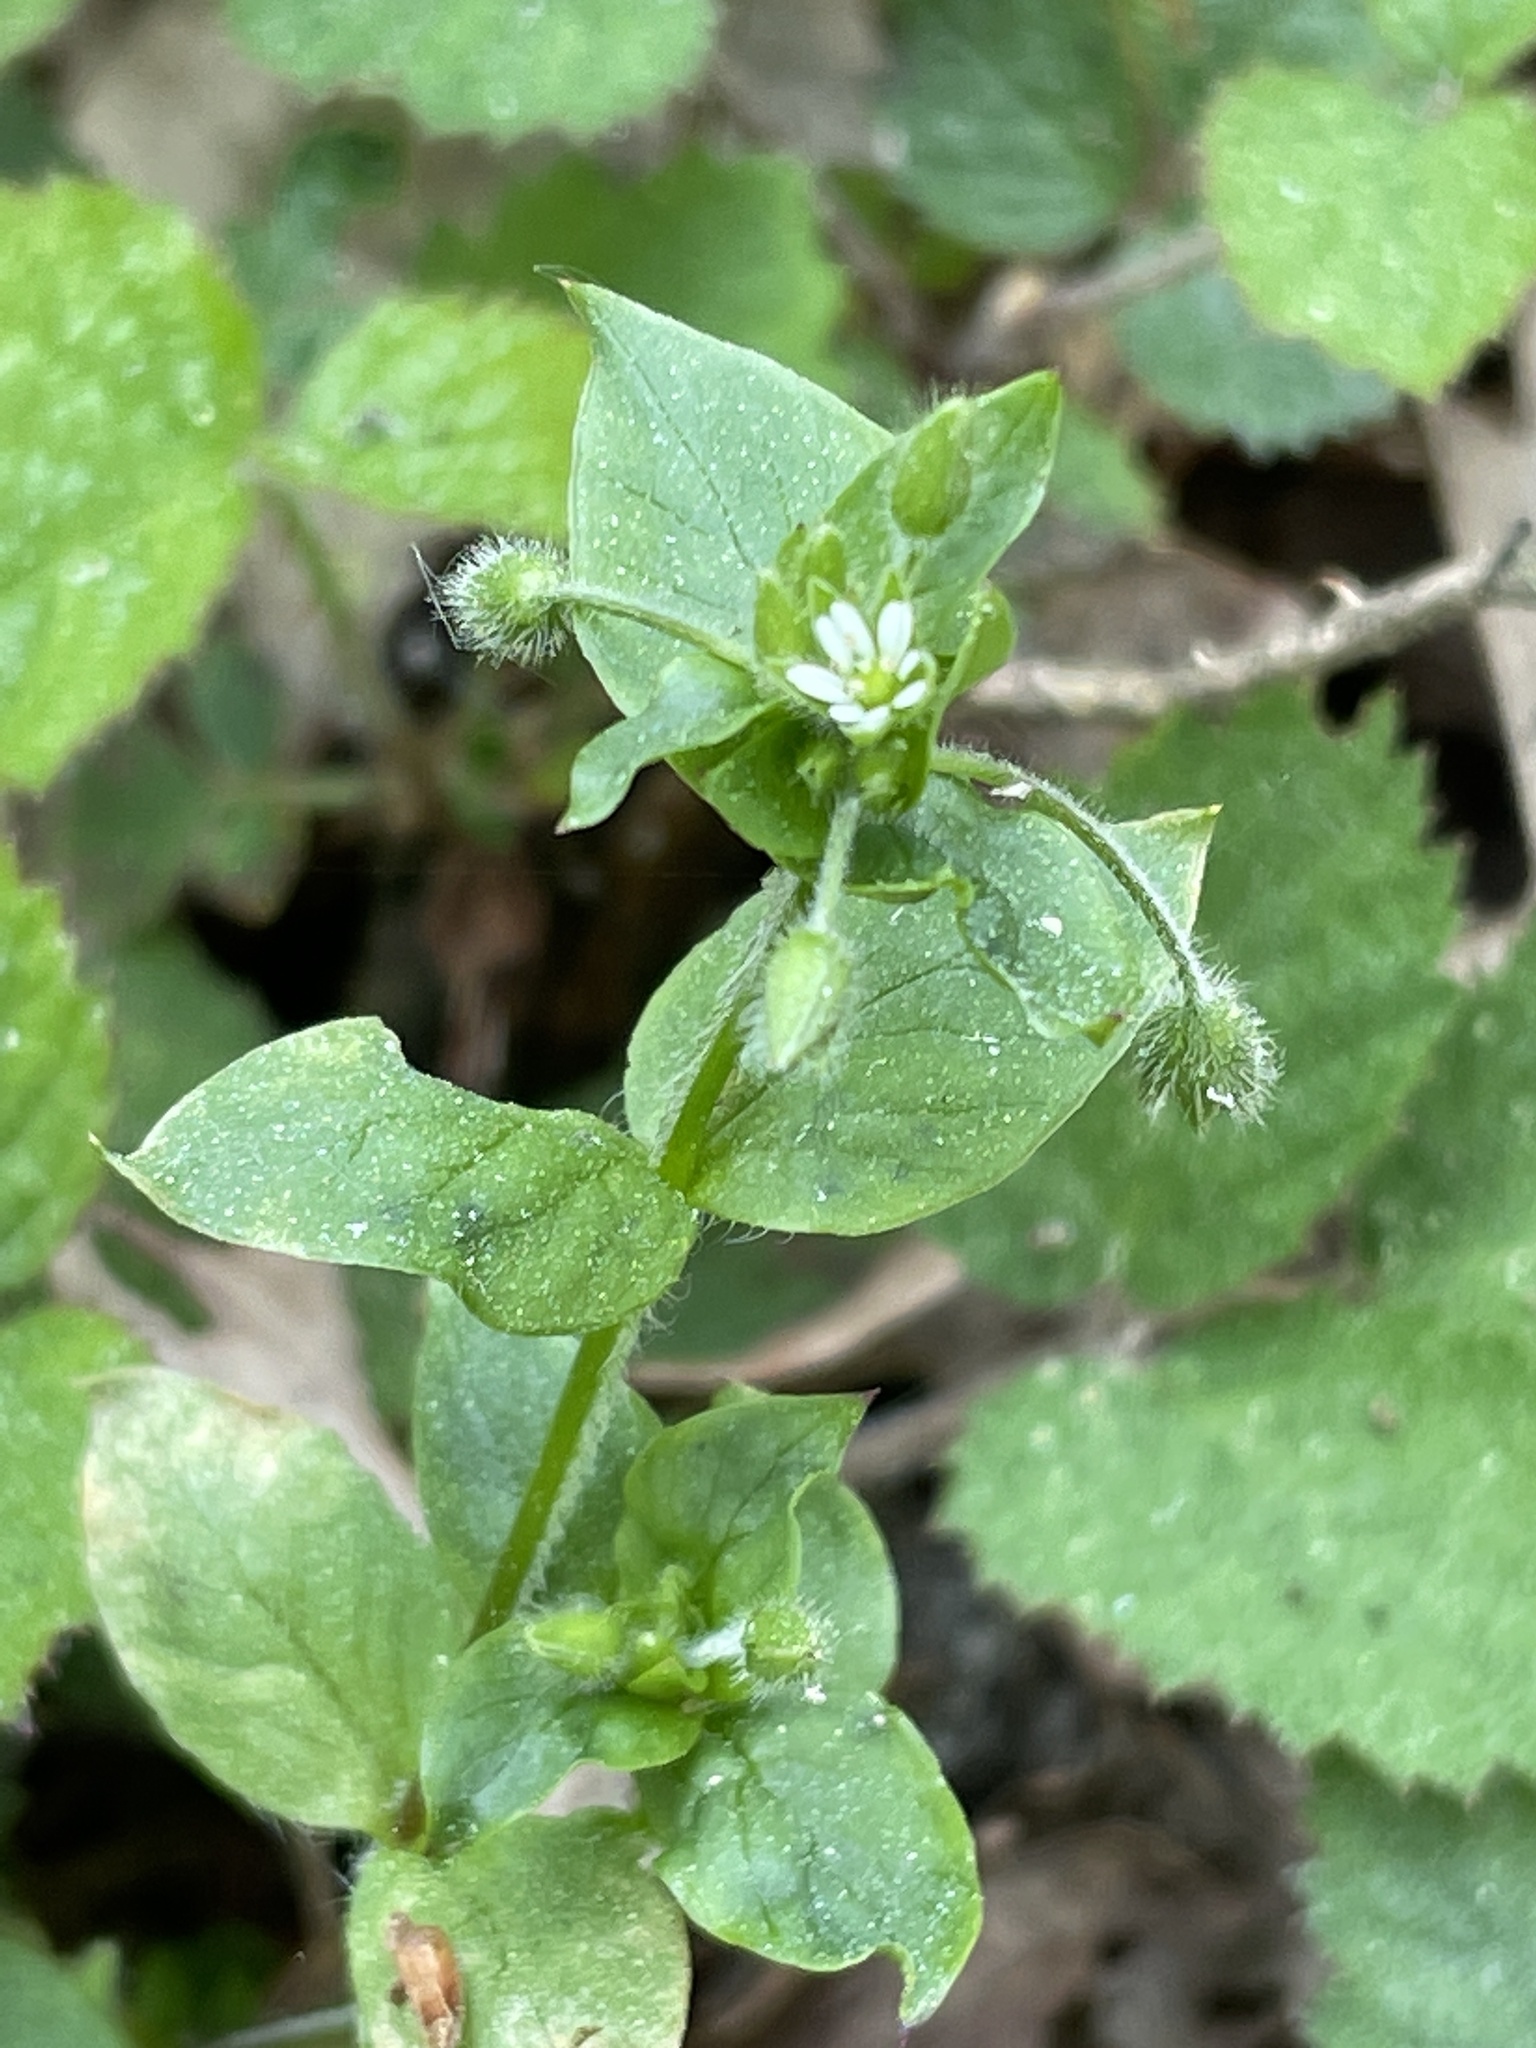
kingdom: Plantae
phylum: Tracheophyta
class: Magnoliopsida
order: Caryophyllales
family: Caryophyllaceae
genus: Stellaria
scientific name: Stellaria media
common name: Common chickweed
